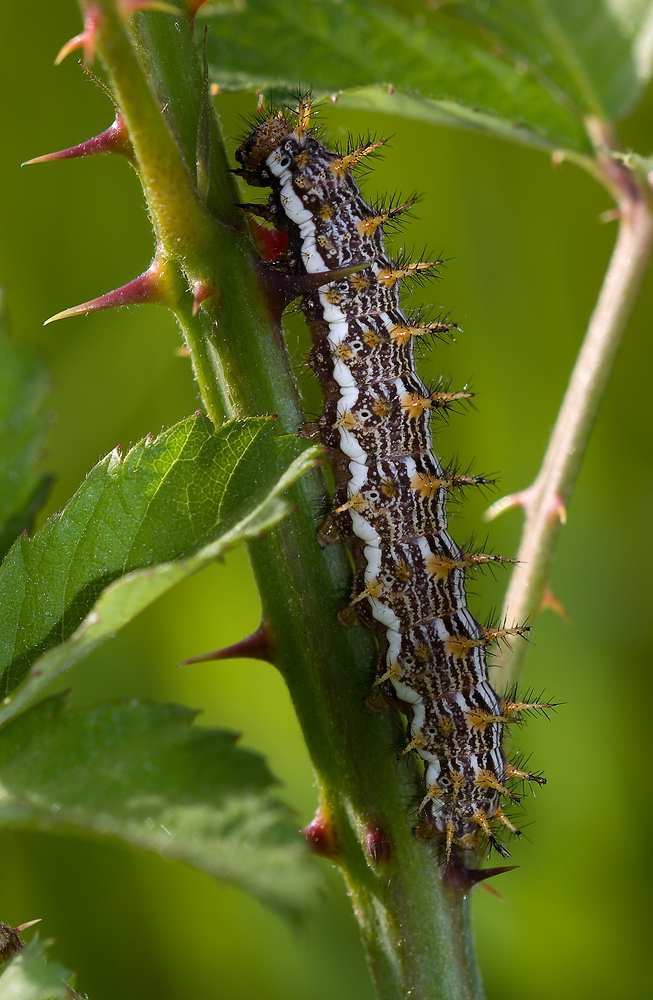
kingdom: Animalia
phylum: Arthropoda
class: Insecta
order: Lepidoptera
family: Nymphalidae
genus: Brenthis
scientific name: Brenthis daphne
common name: Marbled fritillary
